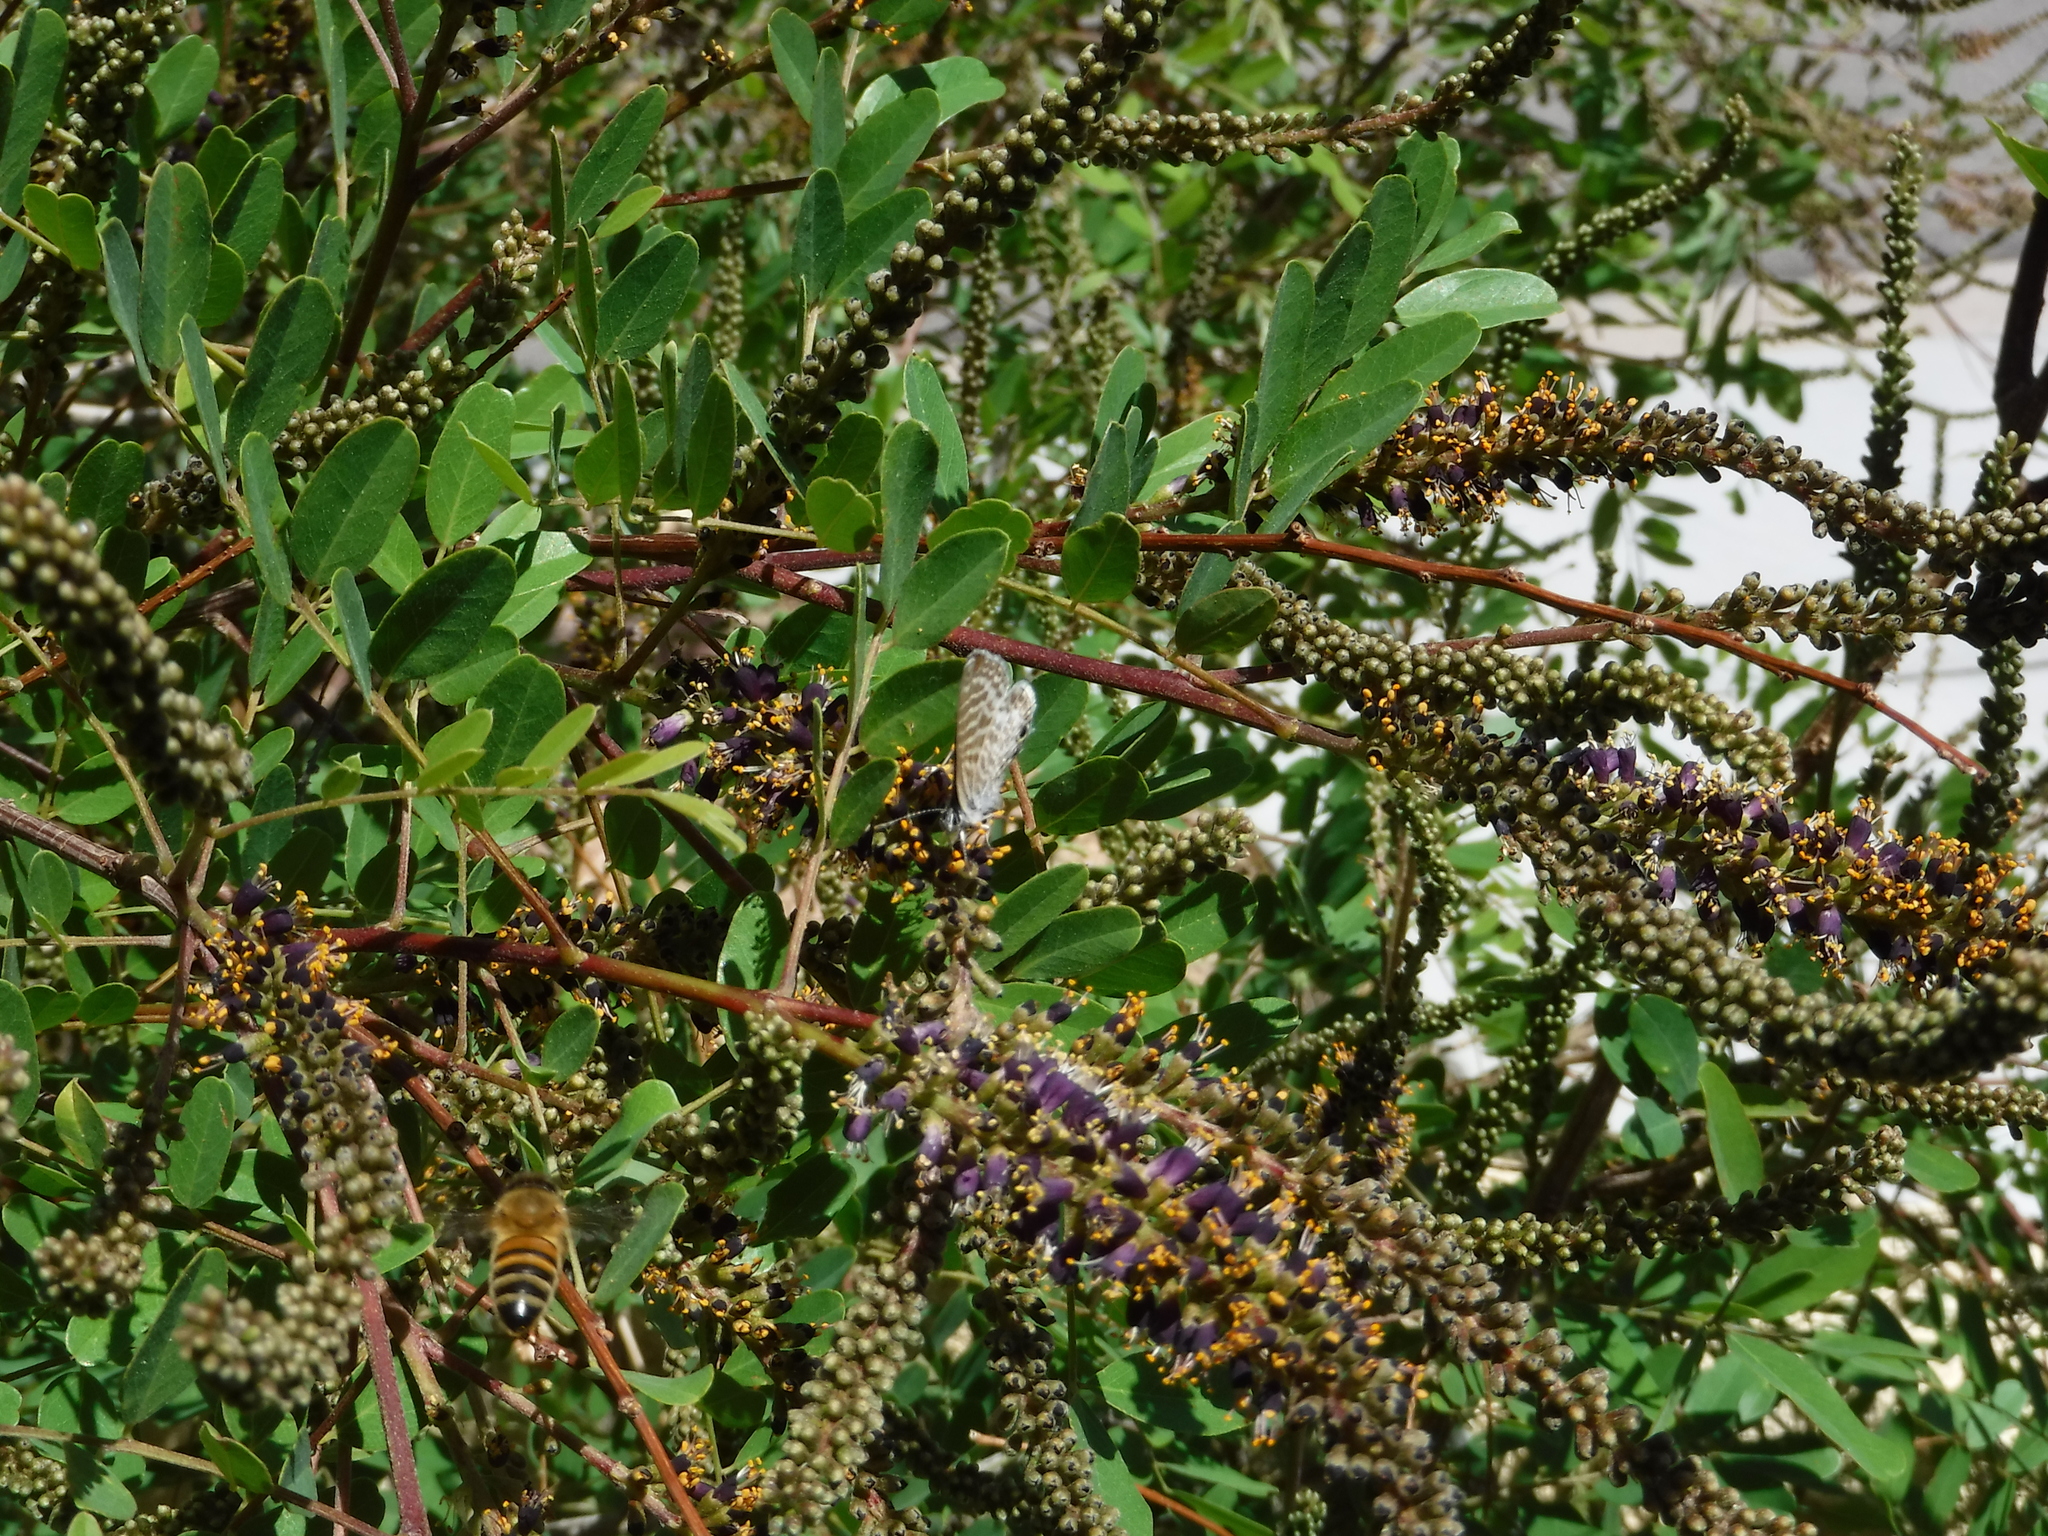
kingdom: Animalia
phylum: Arthropoda
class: Insecta
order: Lepidoptera
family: Lycaenidae
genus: Leptotes
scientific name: Leptotes marina
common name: Marine blue
